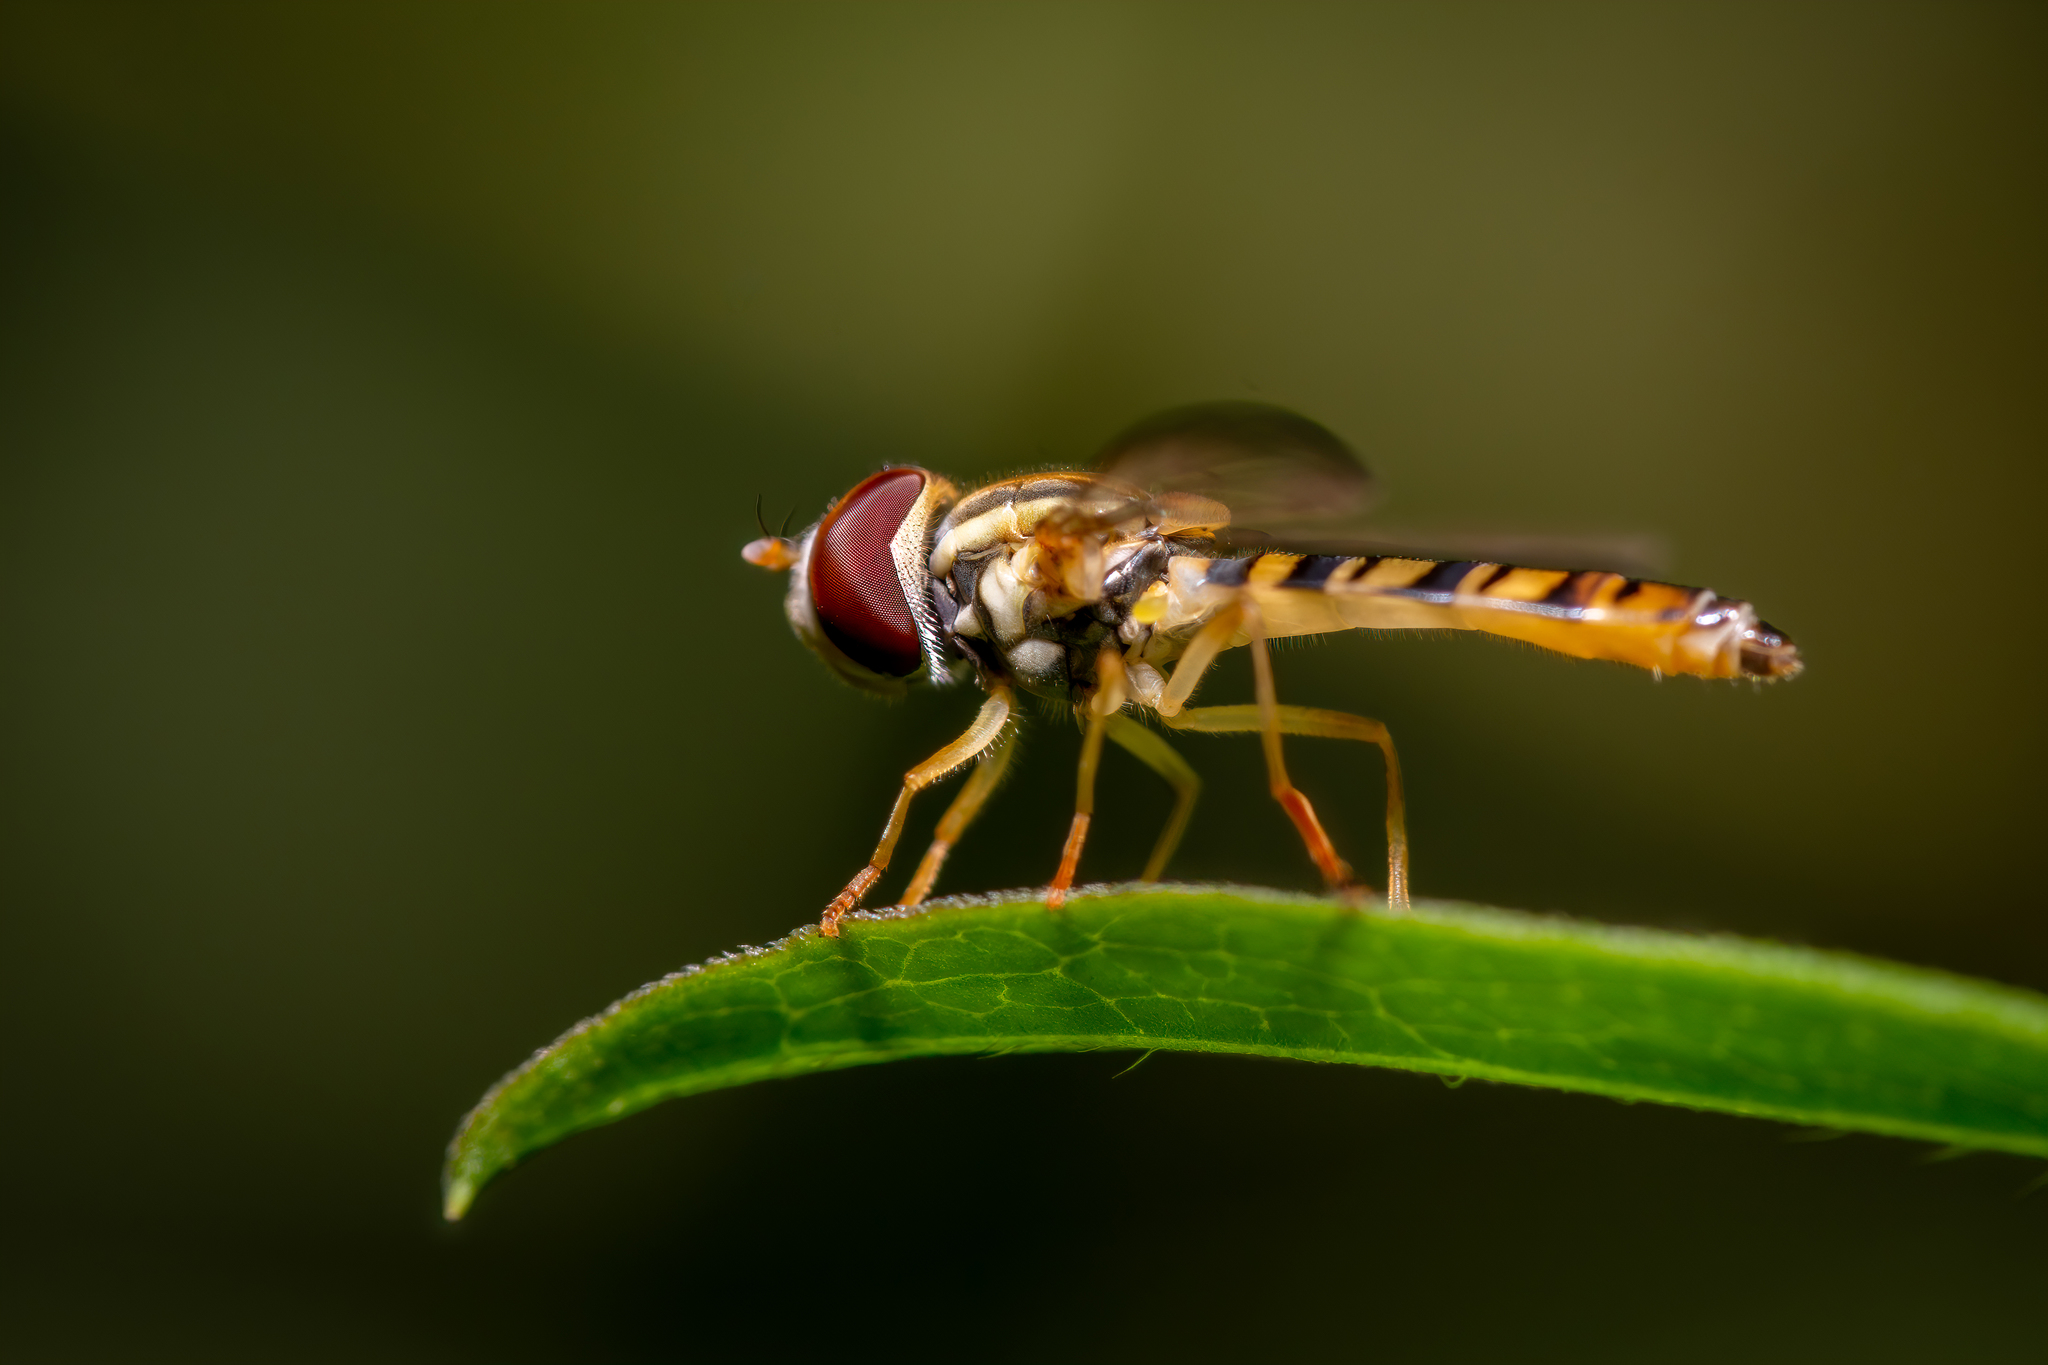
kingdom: Animalia
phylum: Arthropoda
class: Insecta
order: Diptera
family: Syrphidae
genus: Toxomerus
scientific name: Toxomerus politus
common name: Maize calligrapher
